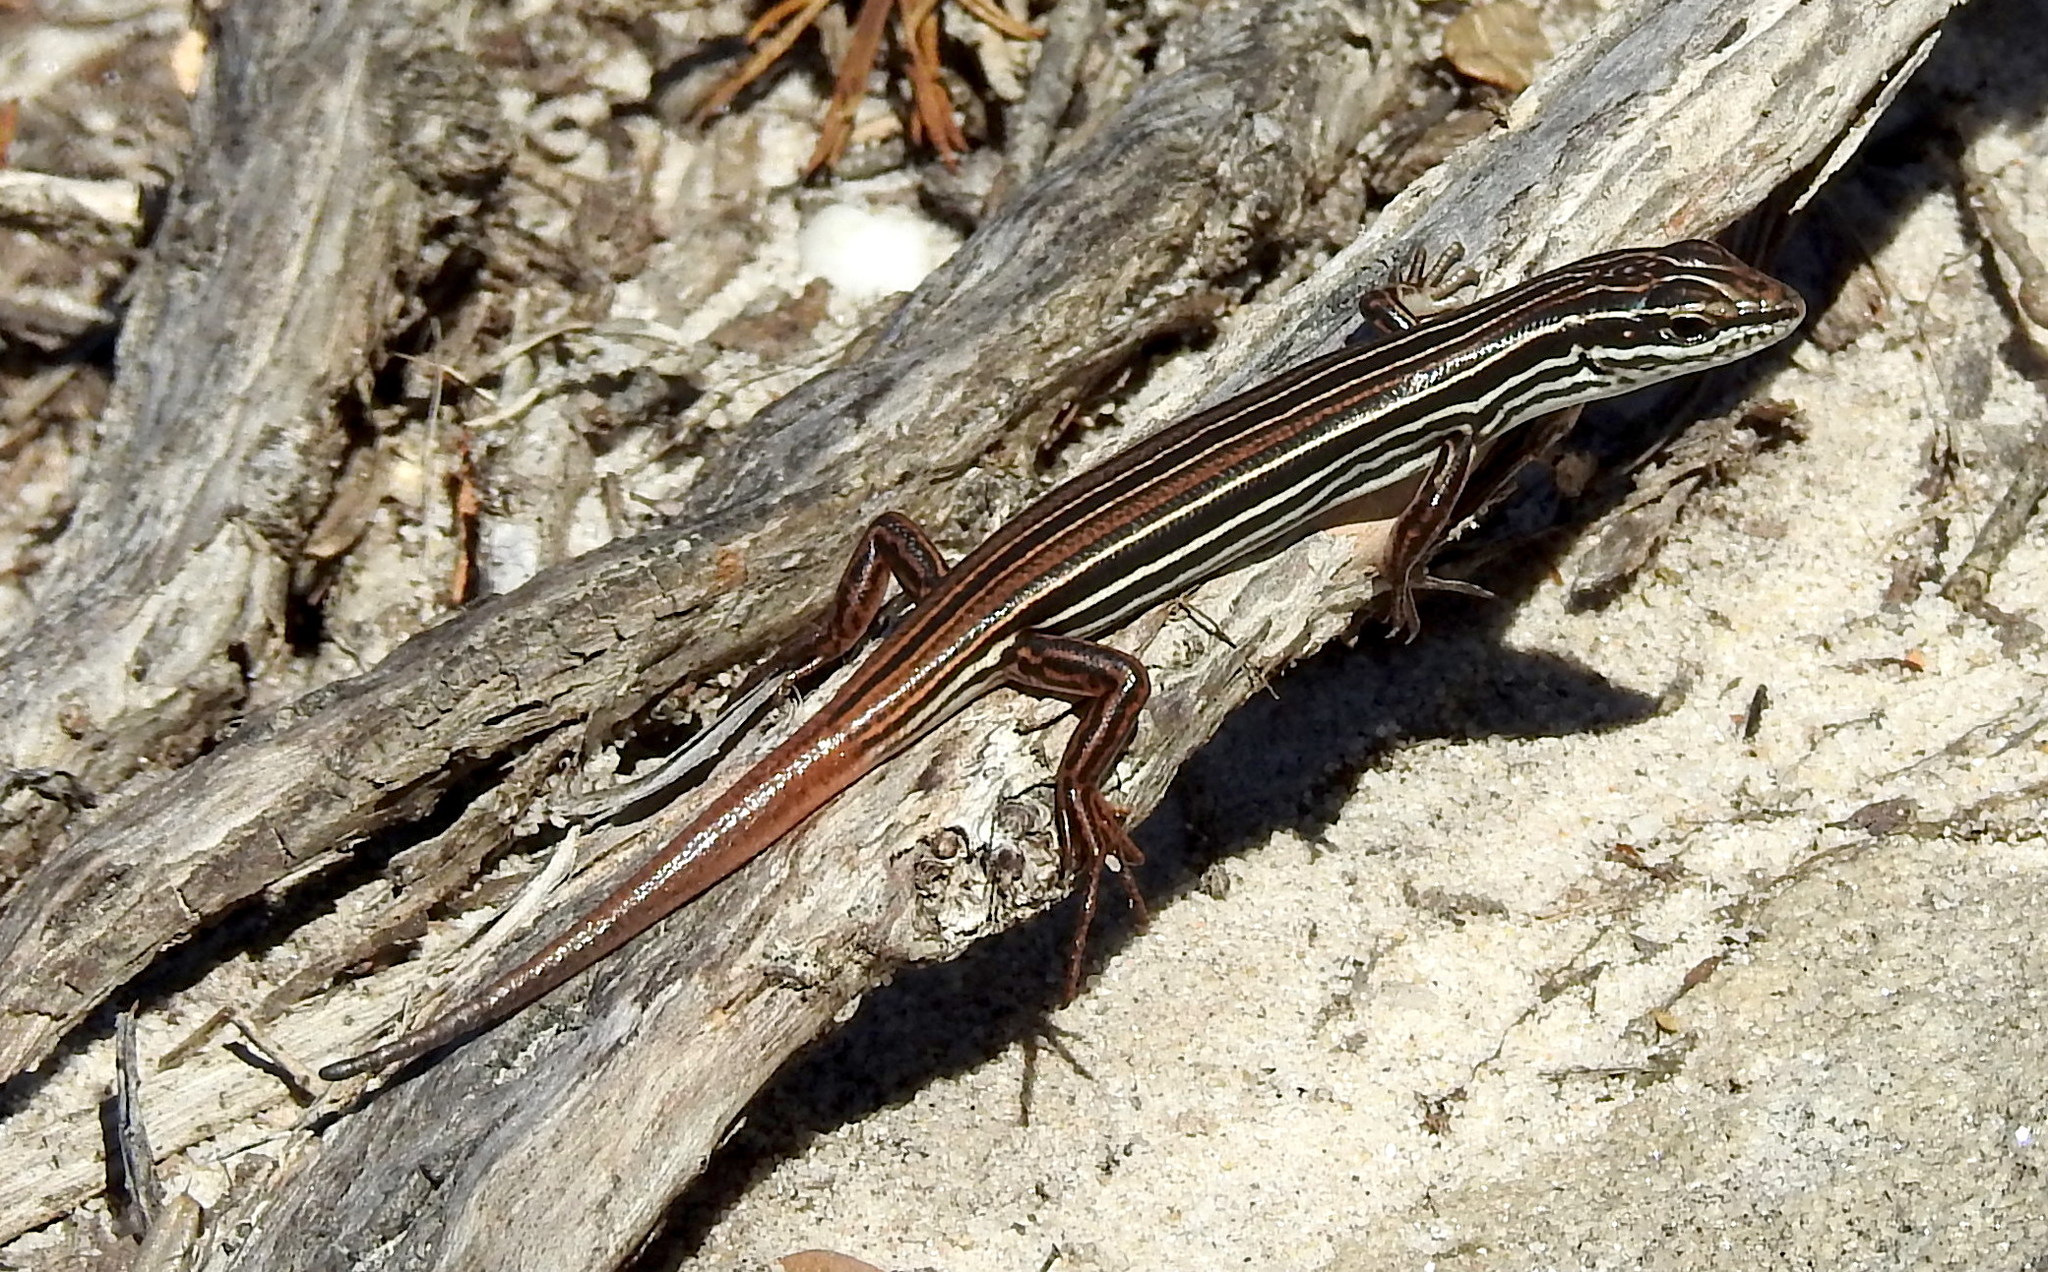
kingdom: Animalia
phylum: Chordata
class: Squamata
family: Scincidae
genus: Ctenotus
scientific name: Ctenotus taeniolatus
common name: Copper-tailed skink
